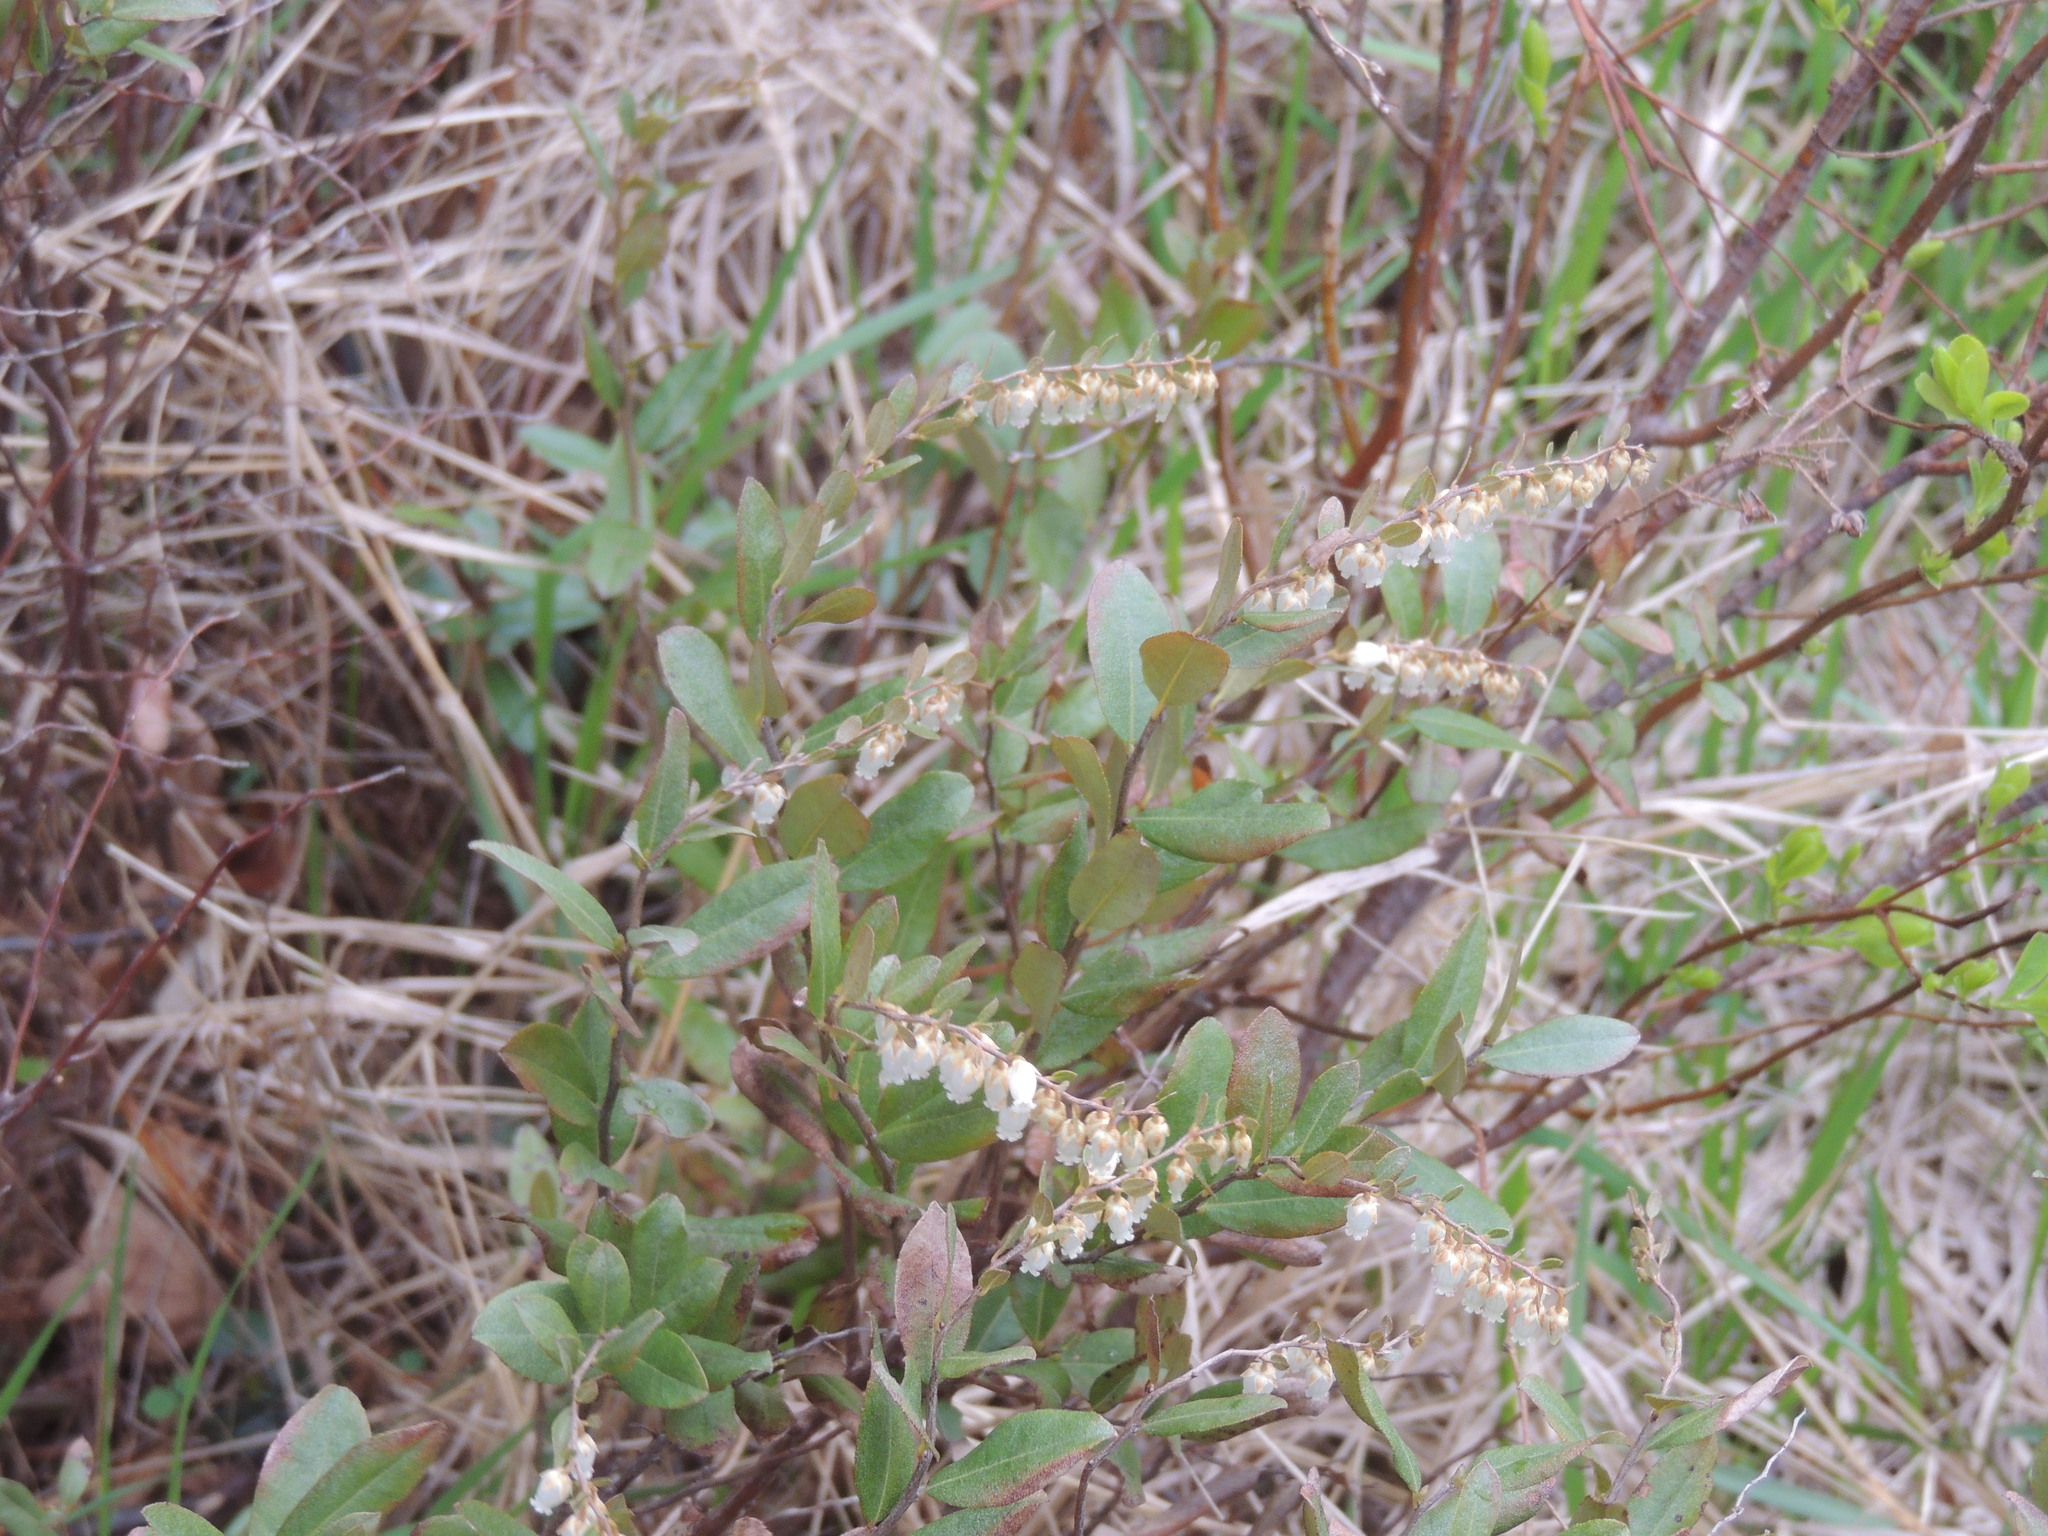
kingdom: Plantae
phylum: Tracheophyta
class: Magnoliopsida
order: Ericales
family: Ericaceae
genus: Chamaedaphne
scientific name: Chamaedaphne calyculata
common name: Leatherleaf
